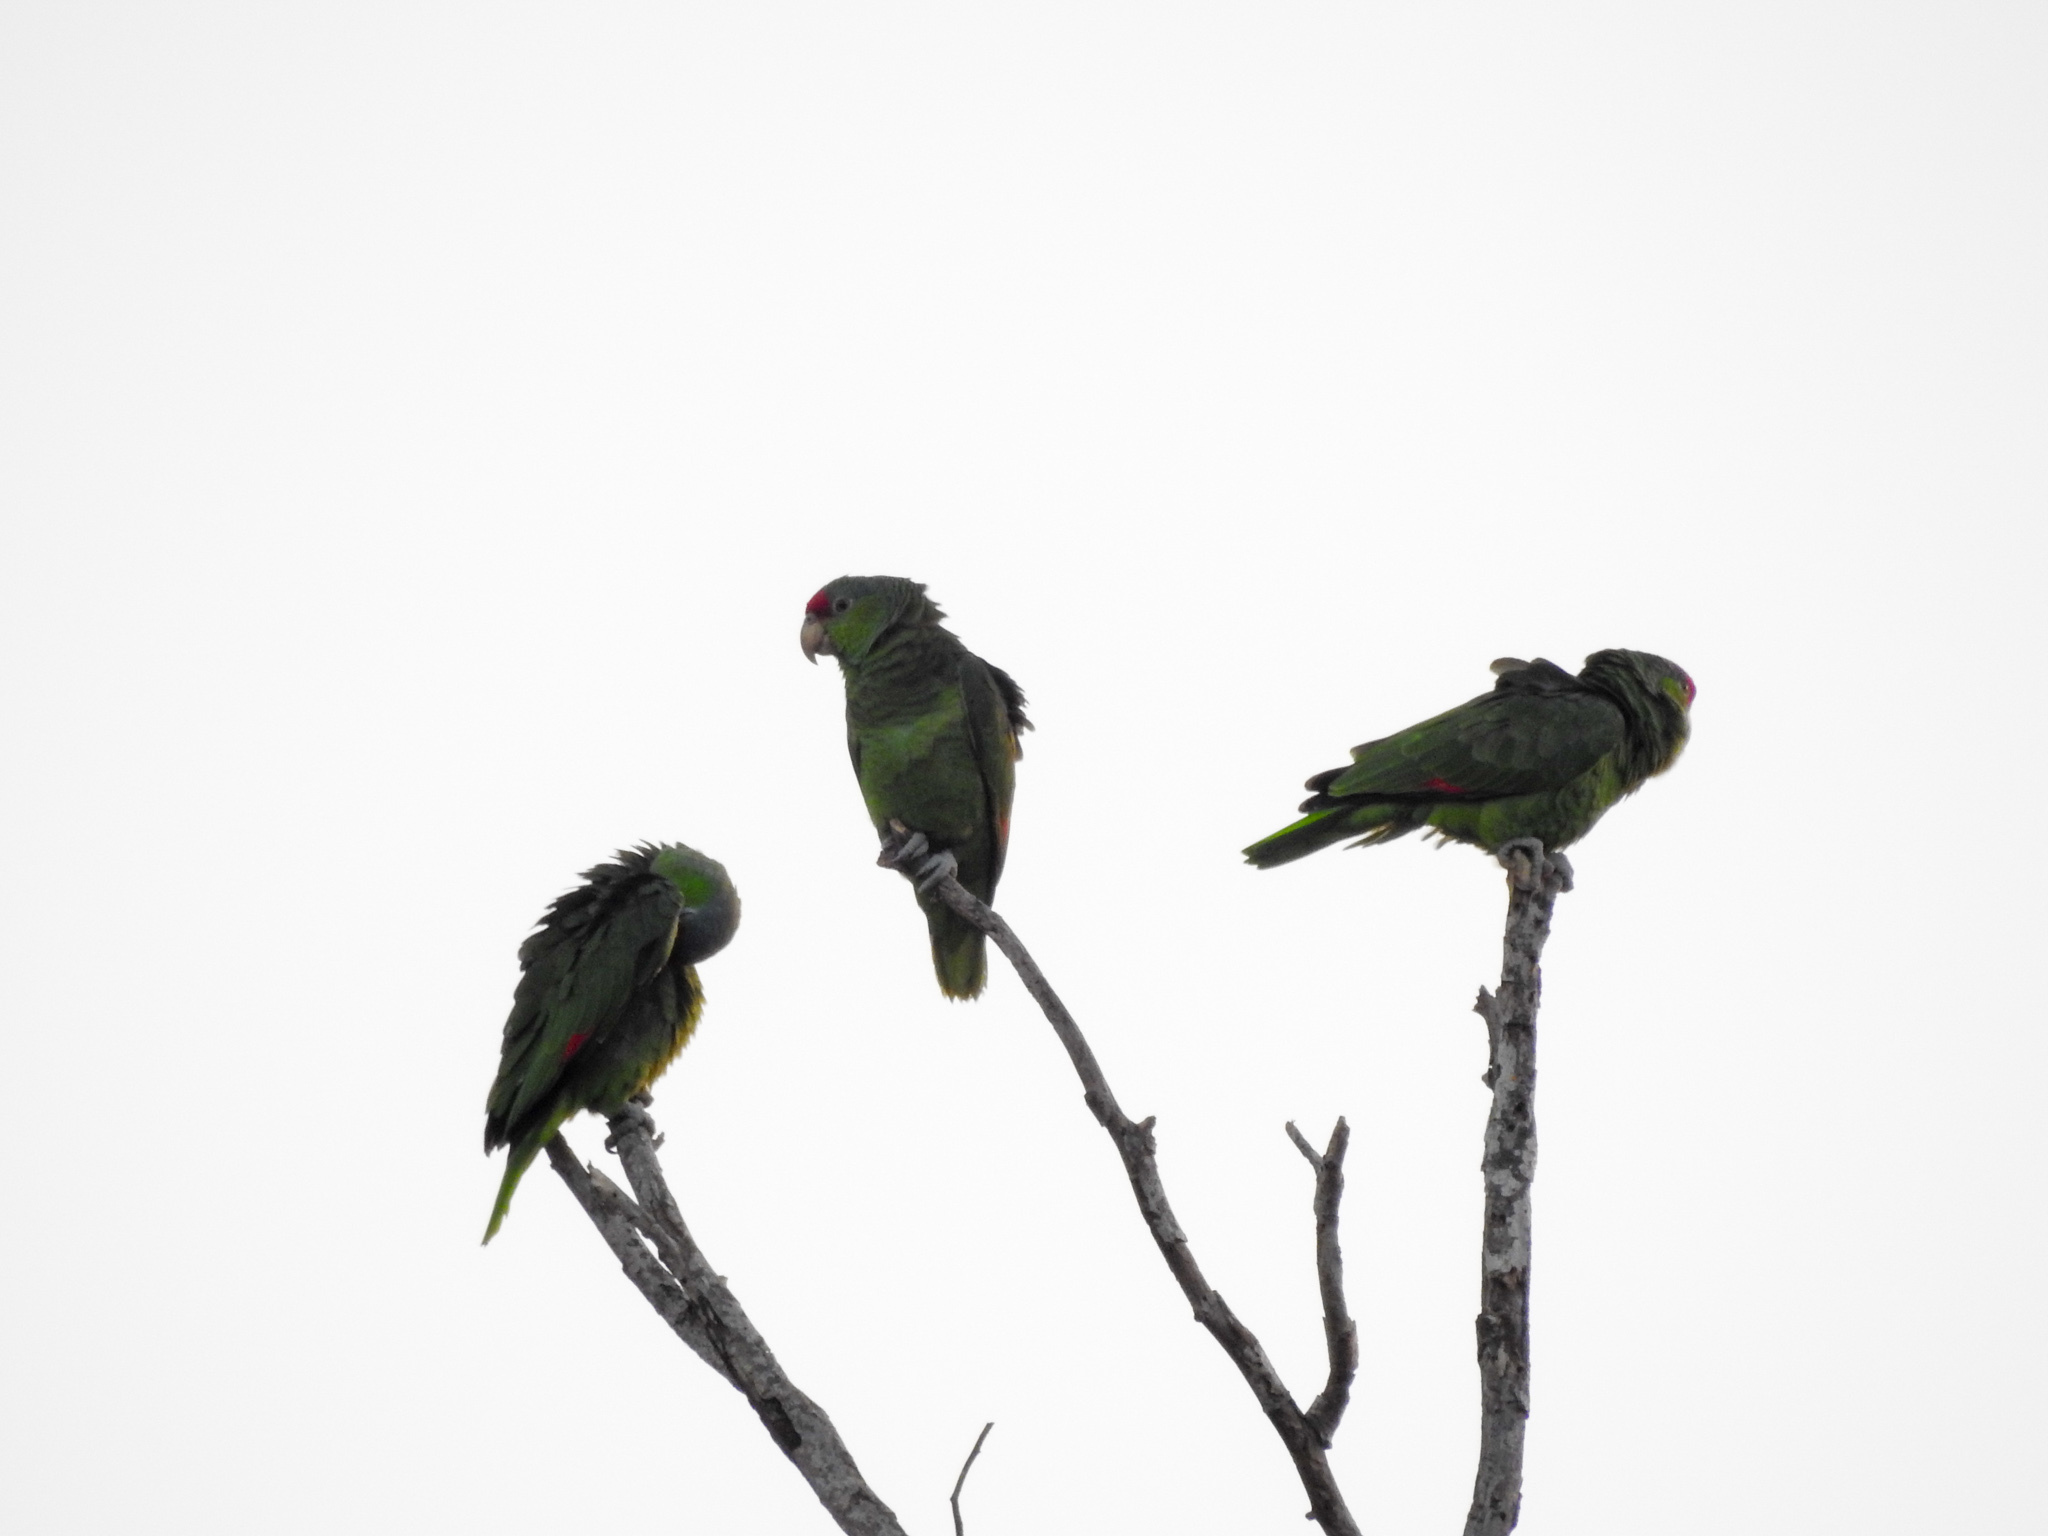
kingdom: Animalia
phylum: Chordata
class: Aves
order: Psittaciformes
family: Psittacidae
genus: Amazona
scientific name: Amazona viridigenalis
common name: Red-crowned amazon
